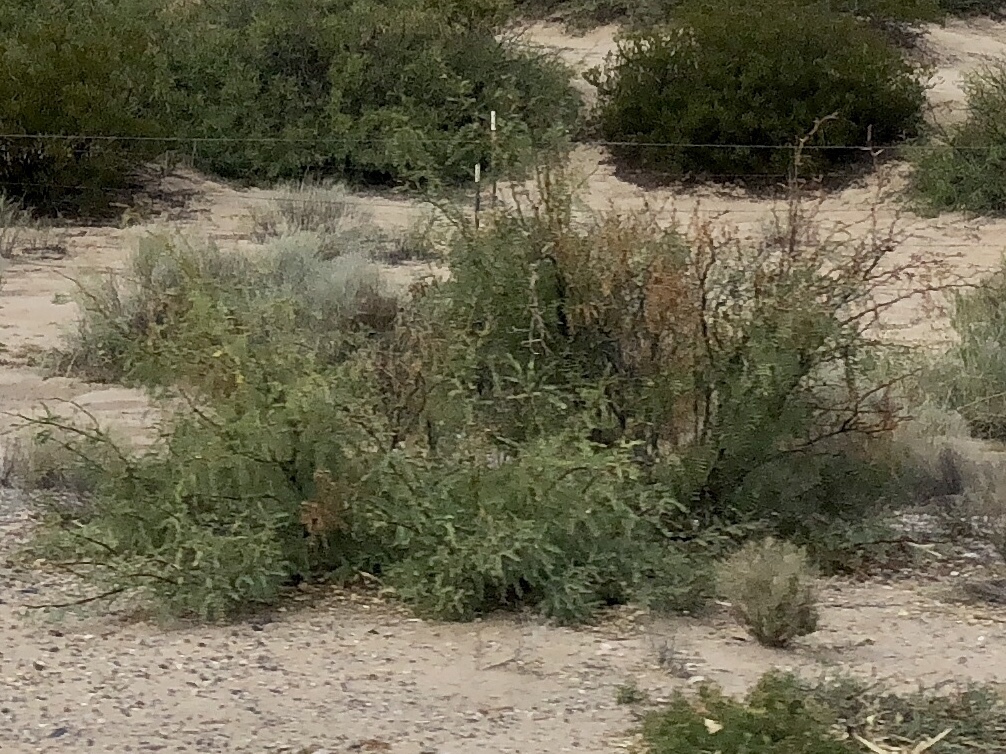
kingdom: Plantae
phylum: Tracheophyta
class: Magnoliopsida
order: Fabales
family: Fabaceae
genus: Prosopis
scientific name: Prosopis glandulosa
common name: Honey mesquite
